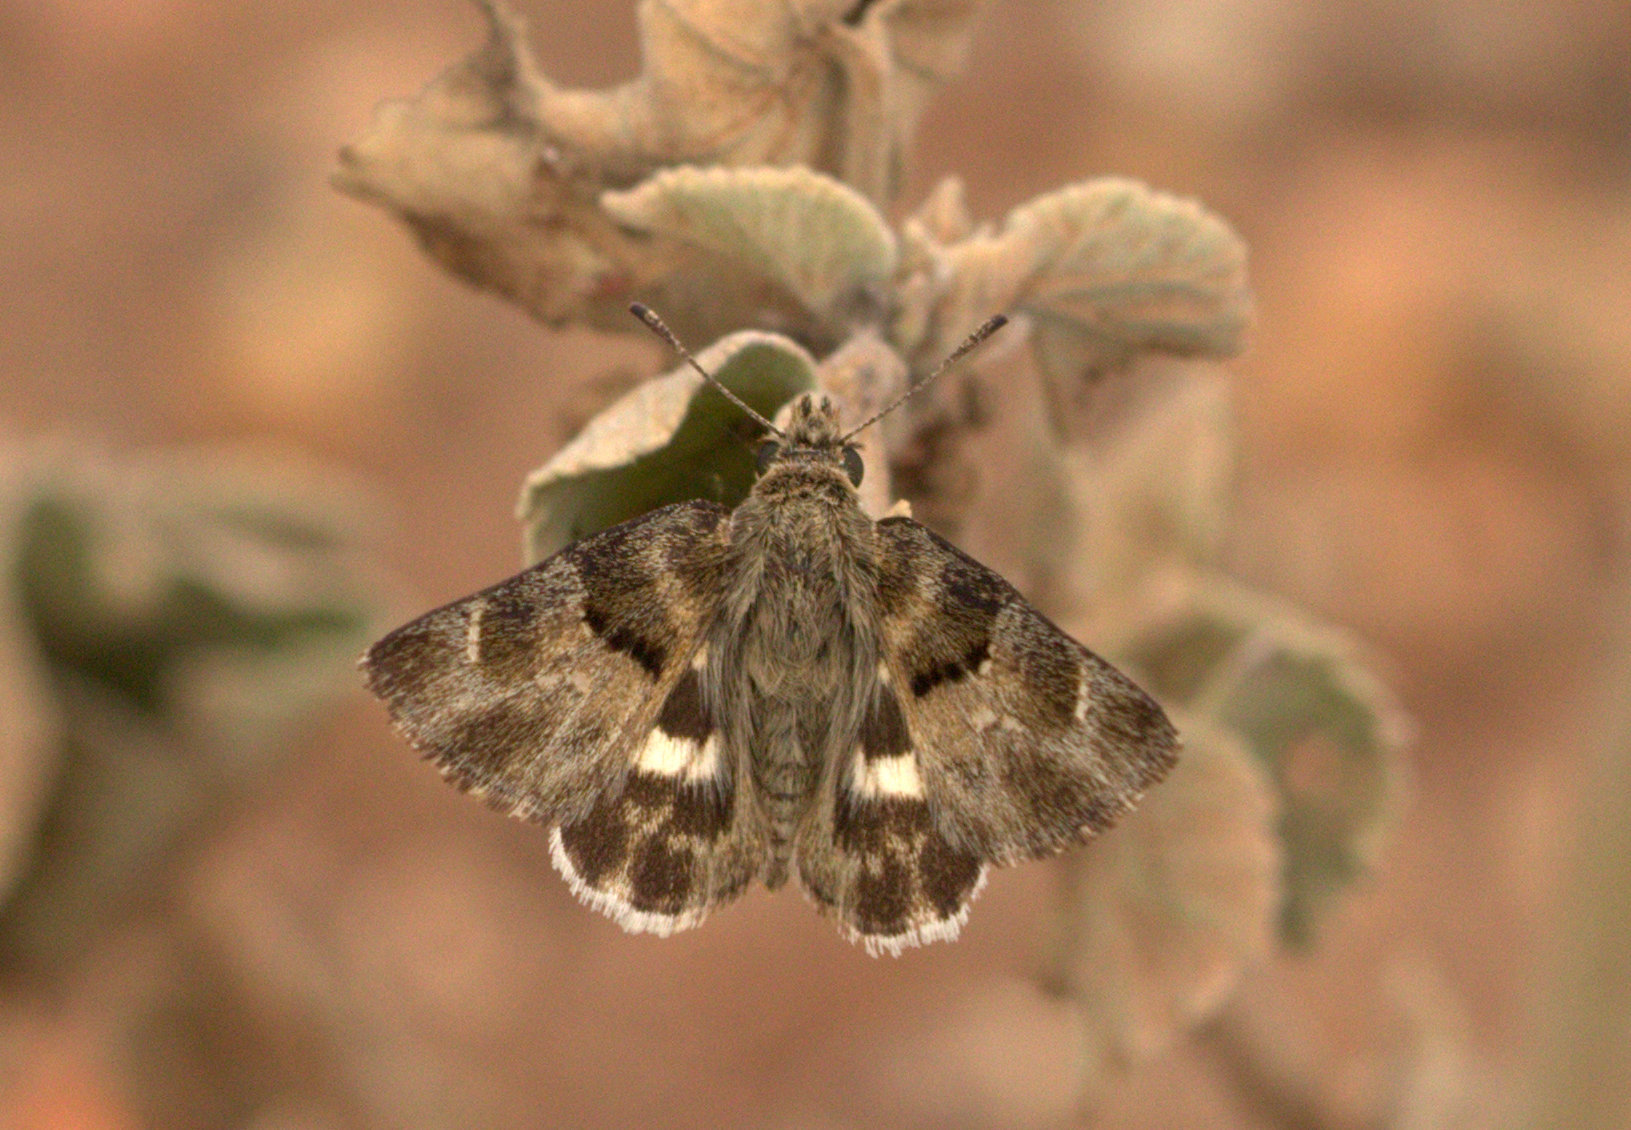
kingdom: Animalia
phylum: Arthropoda
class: Insecta
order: Lepidoptera
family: Hesperiidae
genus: Gomalia
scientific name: Gomalia elma
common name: Green-marbled skipper
